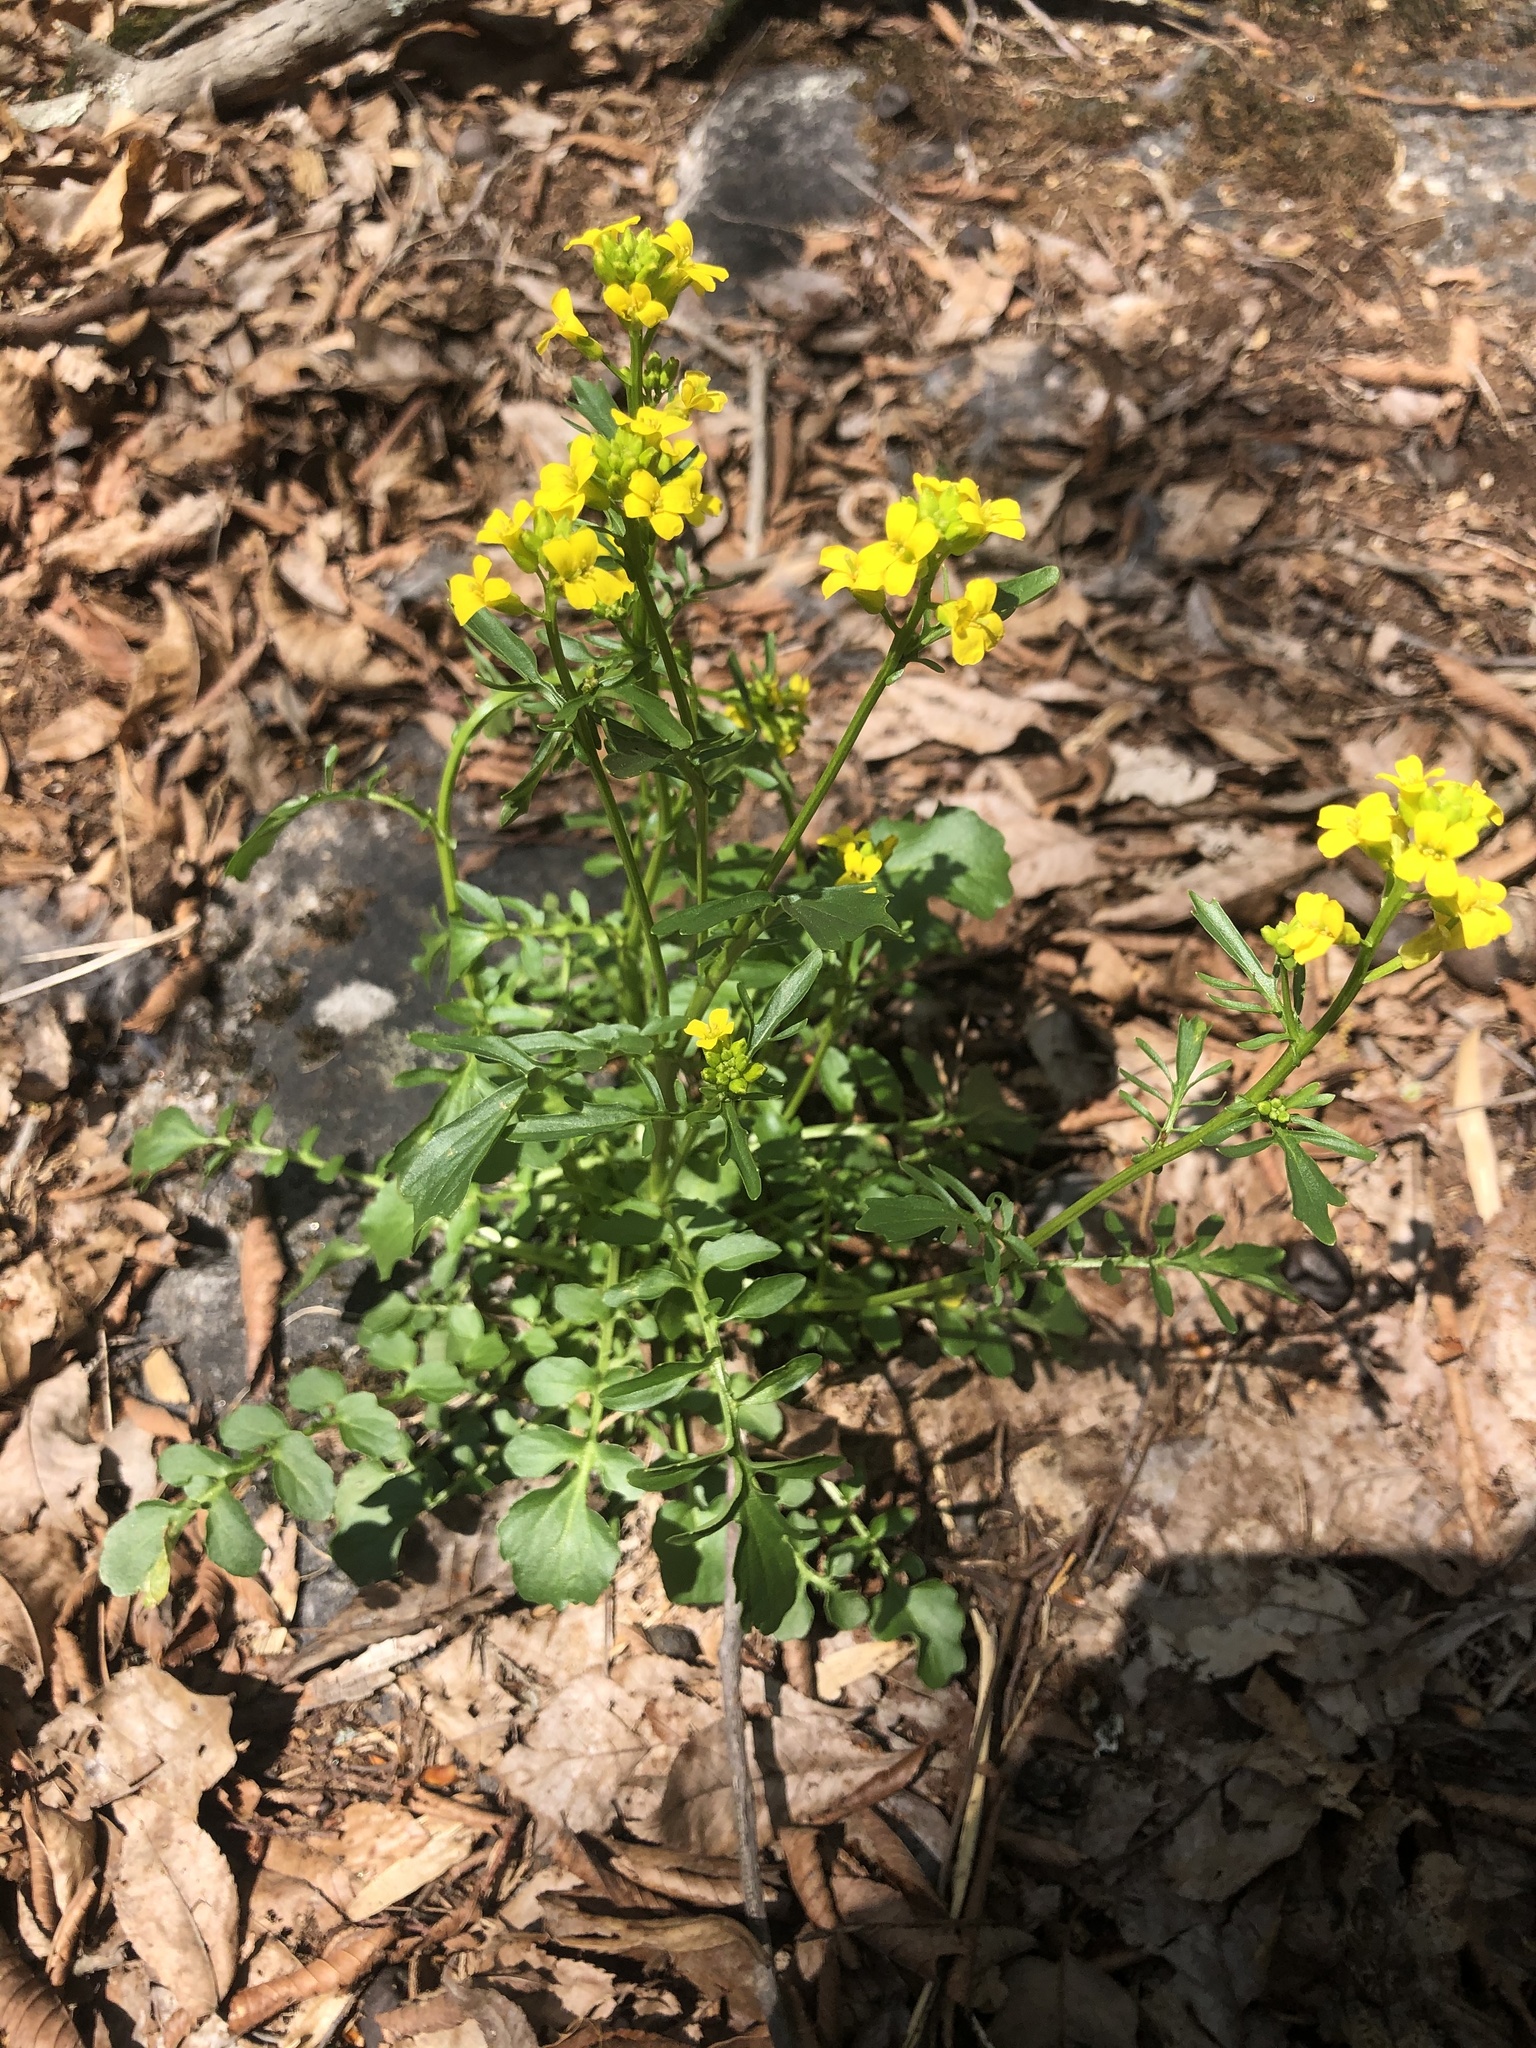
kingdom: Plantae
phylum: Tracheophyta
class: Magnoliopsida
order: Brassicales
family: Brassicaceae
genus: Barbarea
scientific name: Barbarea verna
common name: American cress
